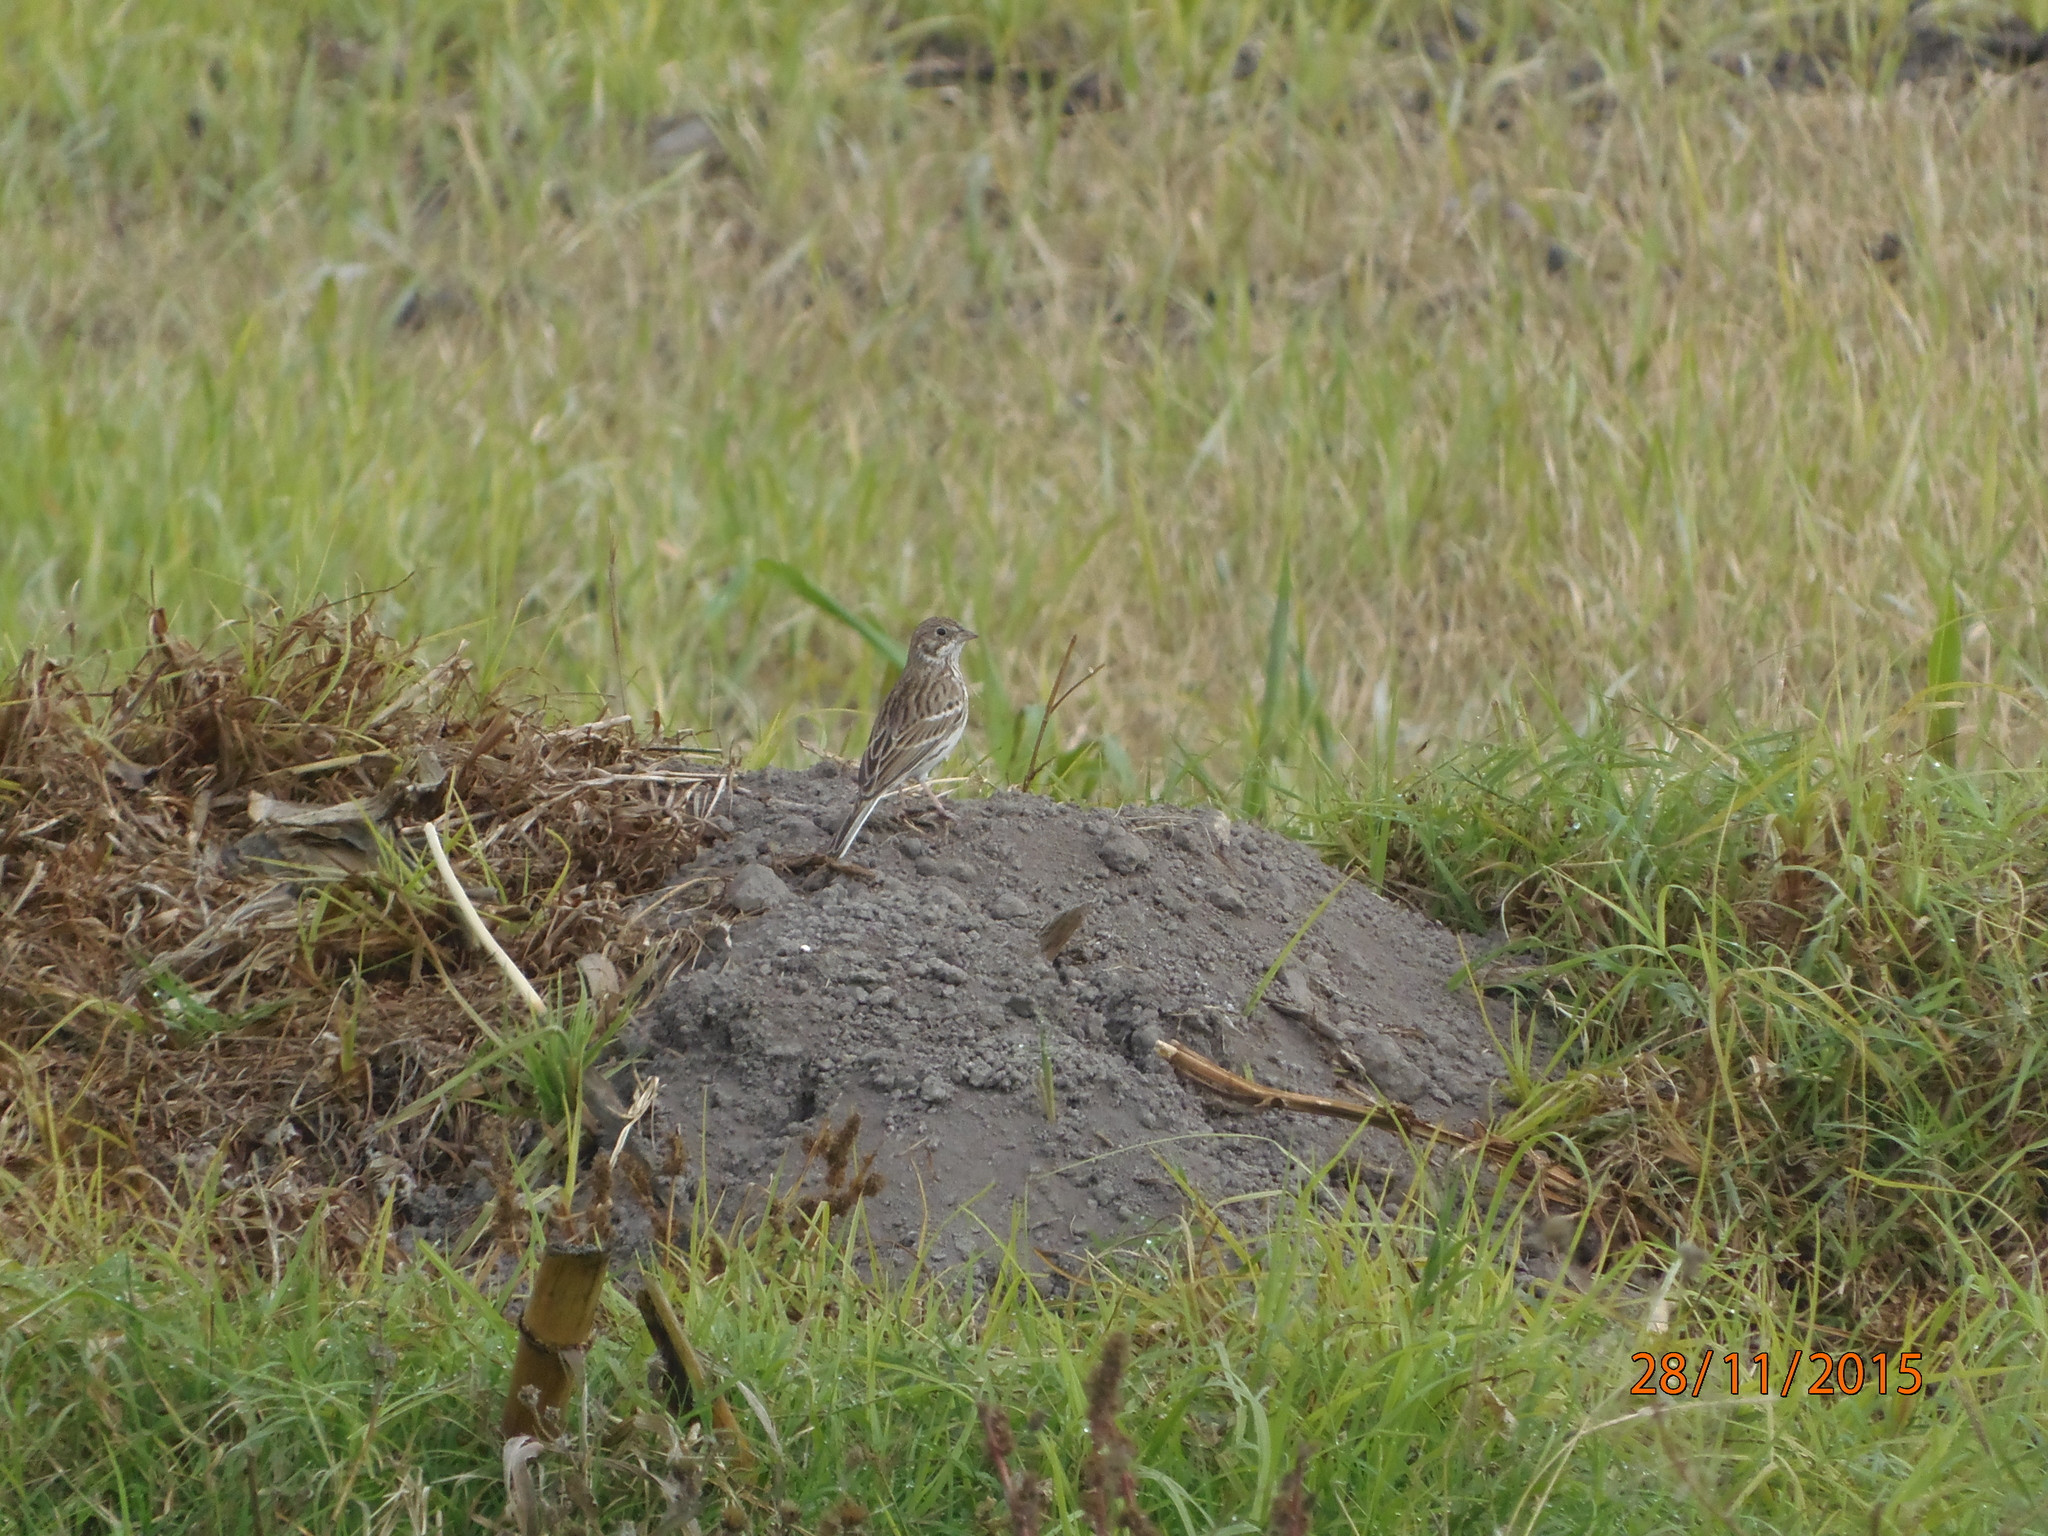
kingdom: Animalia
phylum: Chordata
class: Aves
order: Passeriformes
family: Passerellidae
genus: Pooecetes
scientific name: Pooecetes gramineus
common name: Vesper sparrow
